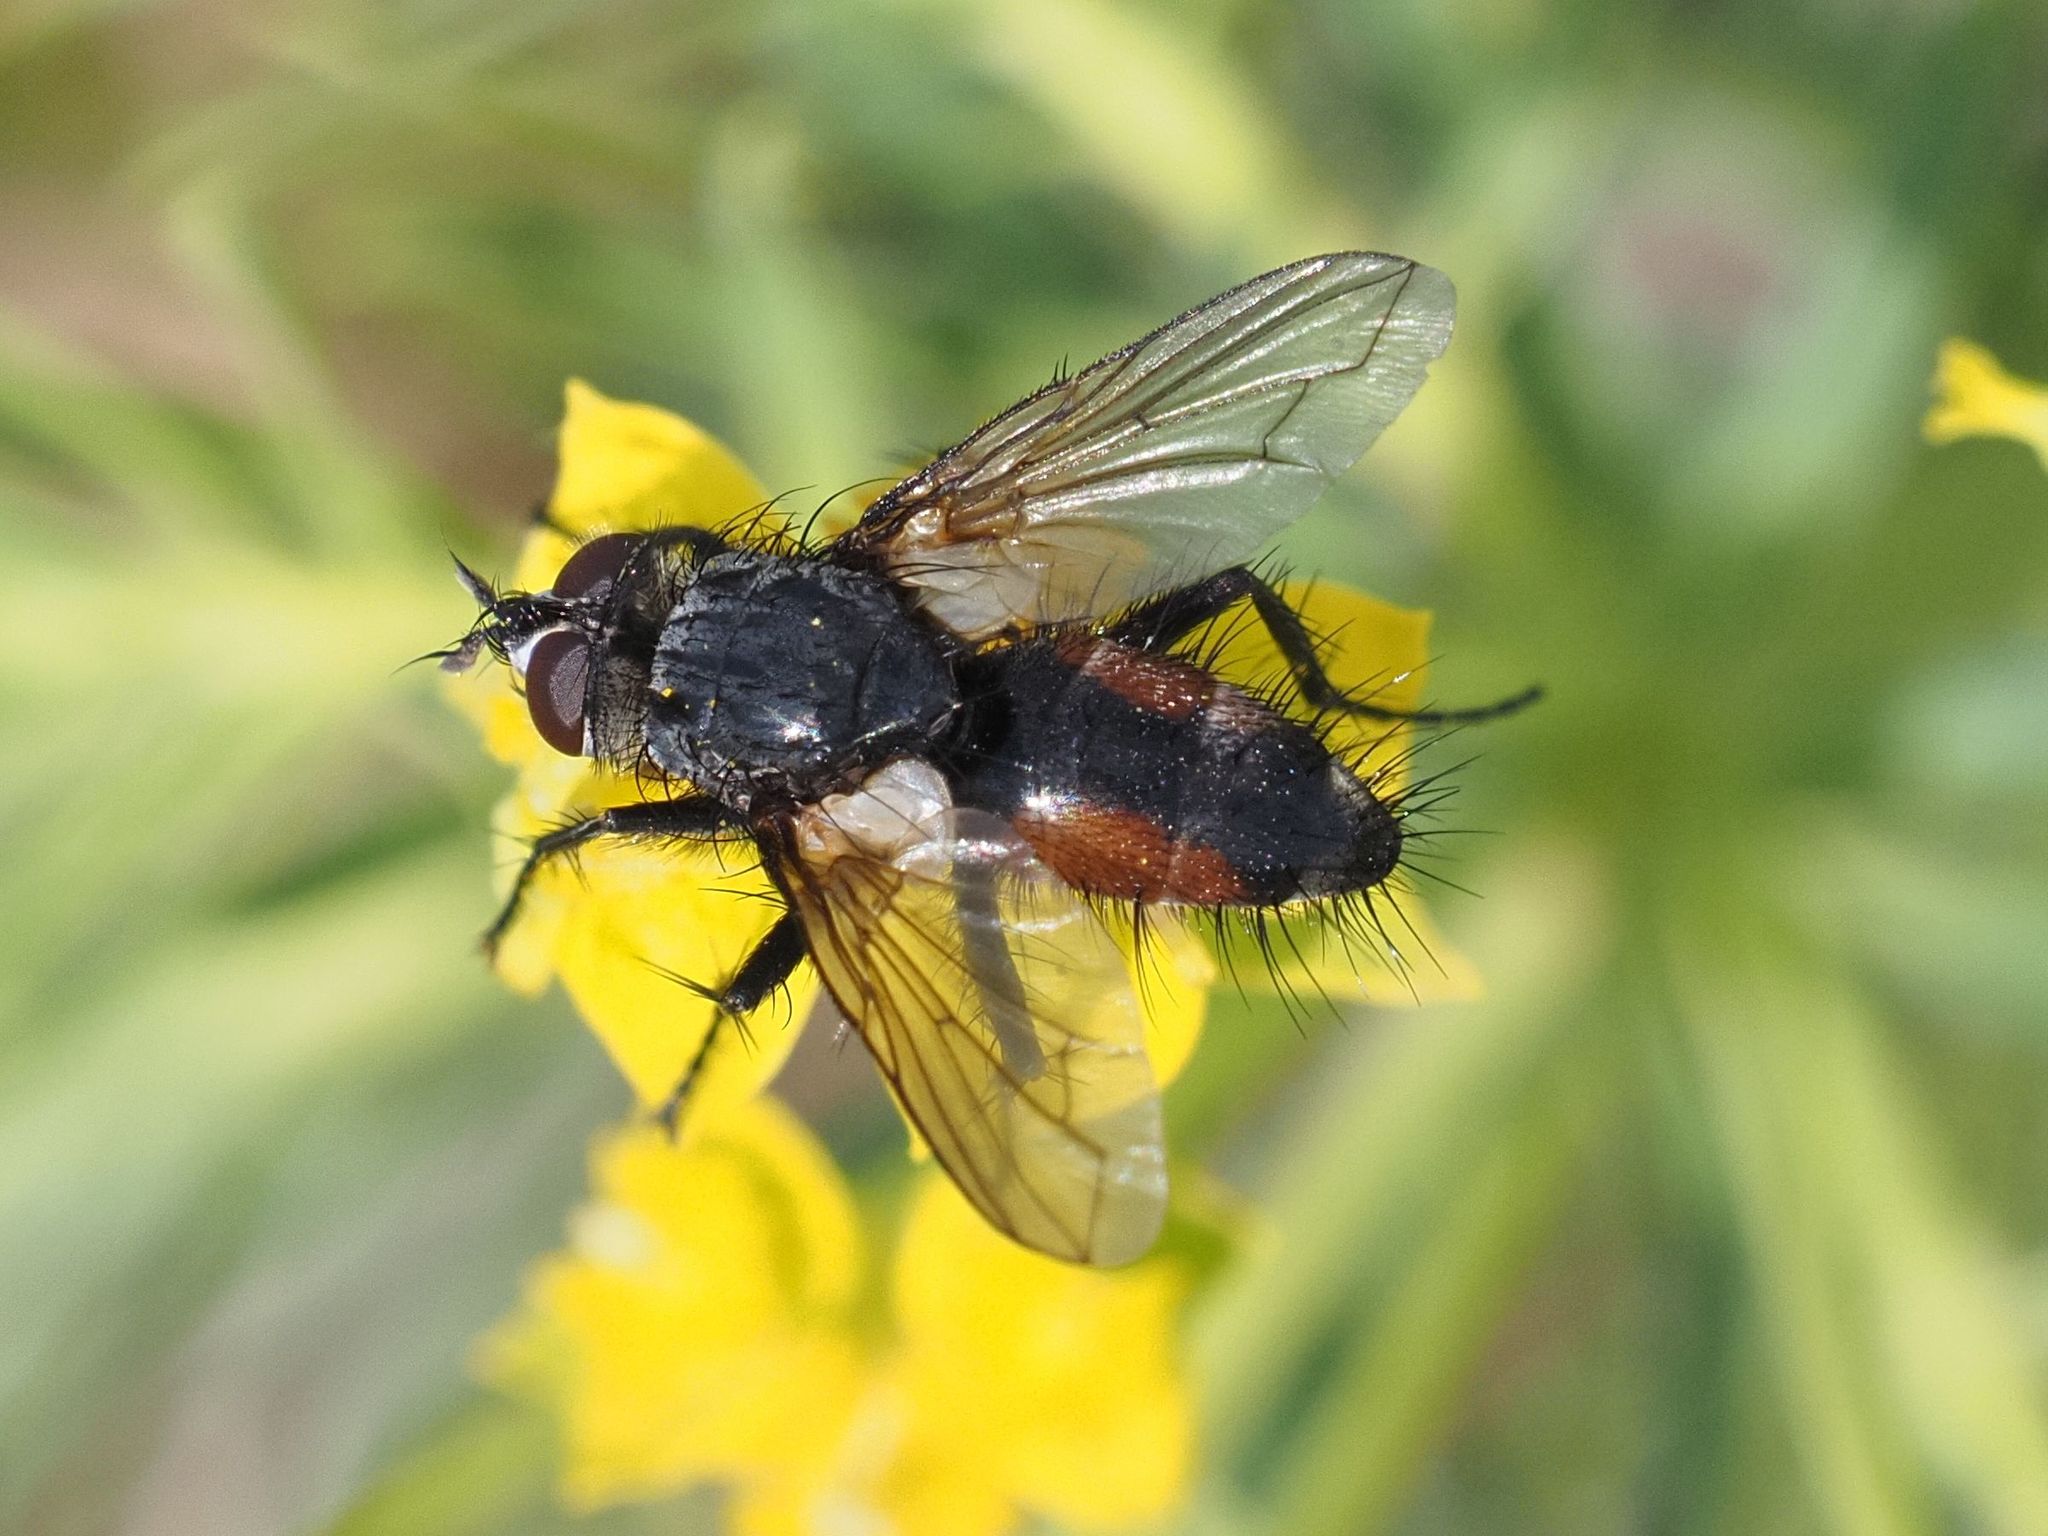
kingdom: Animalia
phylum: Arthropoda
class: Insecta
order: Diptera
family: Tachinidae
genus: Eriothrix
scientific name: Eriothrix rufomaculatus
